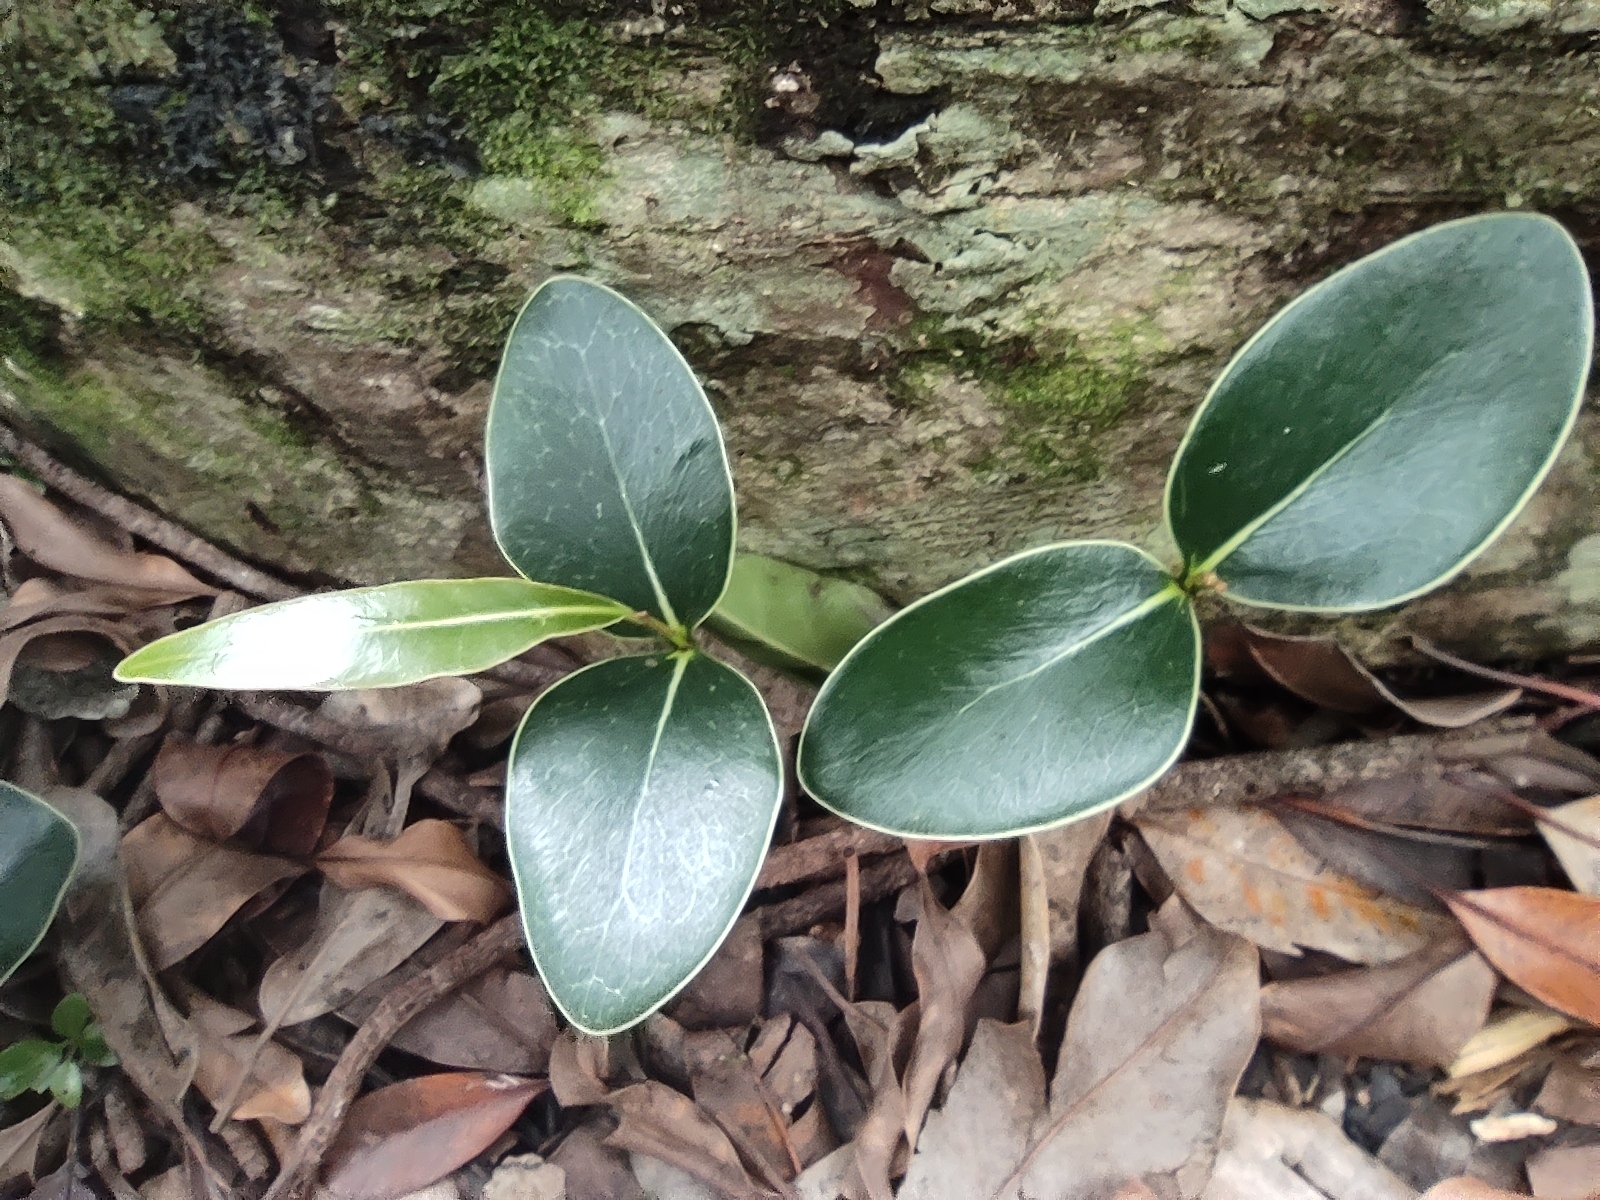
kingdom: Plantae
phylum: Tracheophyta
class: Magnoliopsida
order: Ericales
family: Sapotaceae
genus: Mimusops
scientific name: Mimusops balata
